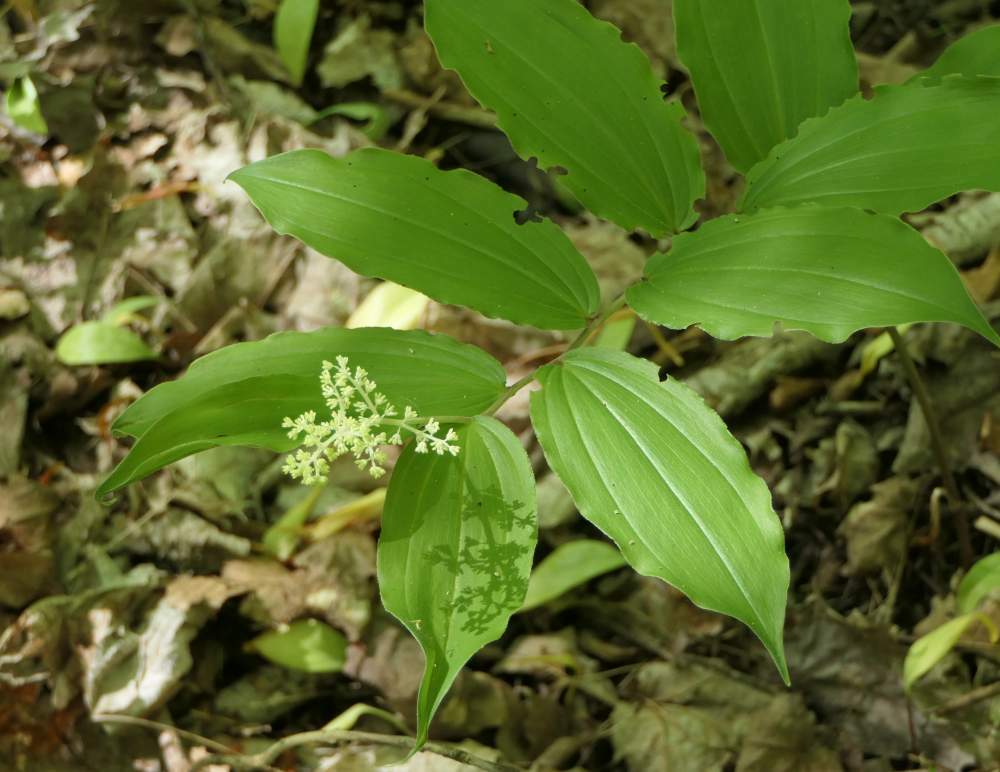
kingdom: Plantae
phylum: Tracheophyta
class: Liliopsida
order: Asparagales
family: Asparagaceae
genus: Maianthemum
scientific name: Maianthemum racemosum
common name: False spikenard
